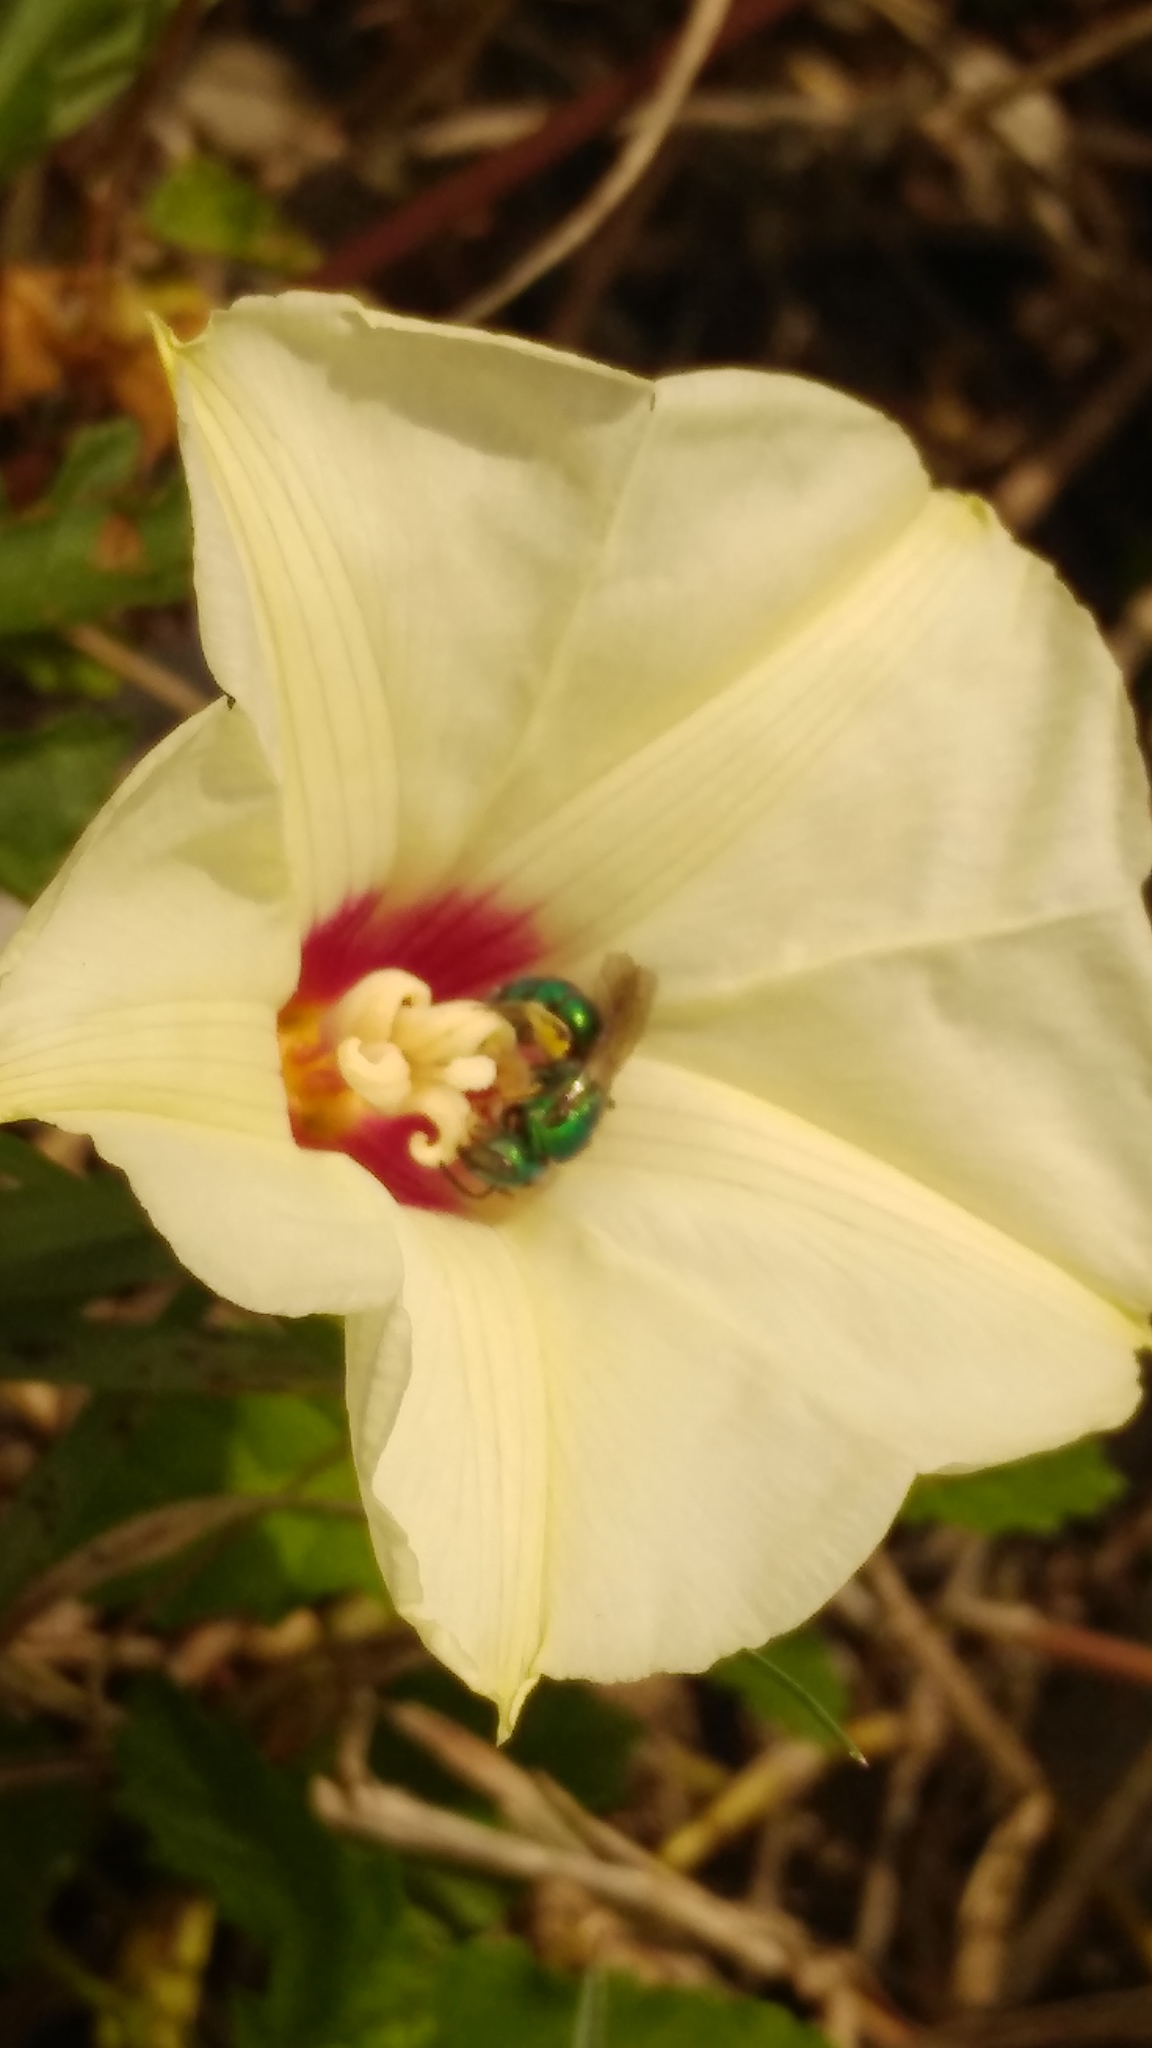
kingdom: Animalia
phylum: Arthropoda
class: Insecta
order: Hymenoptera
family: Halictidae
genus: Pseudaugochlora
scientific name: Pseudaugochlora graminea
